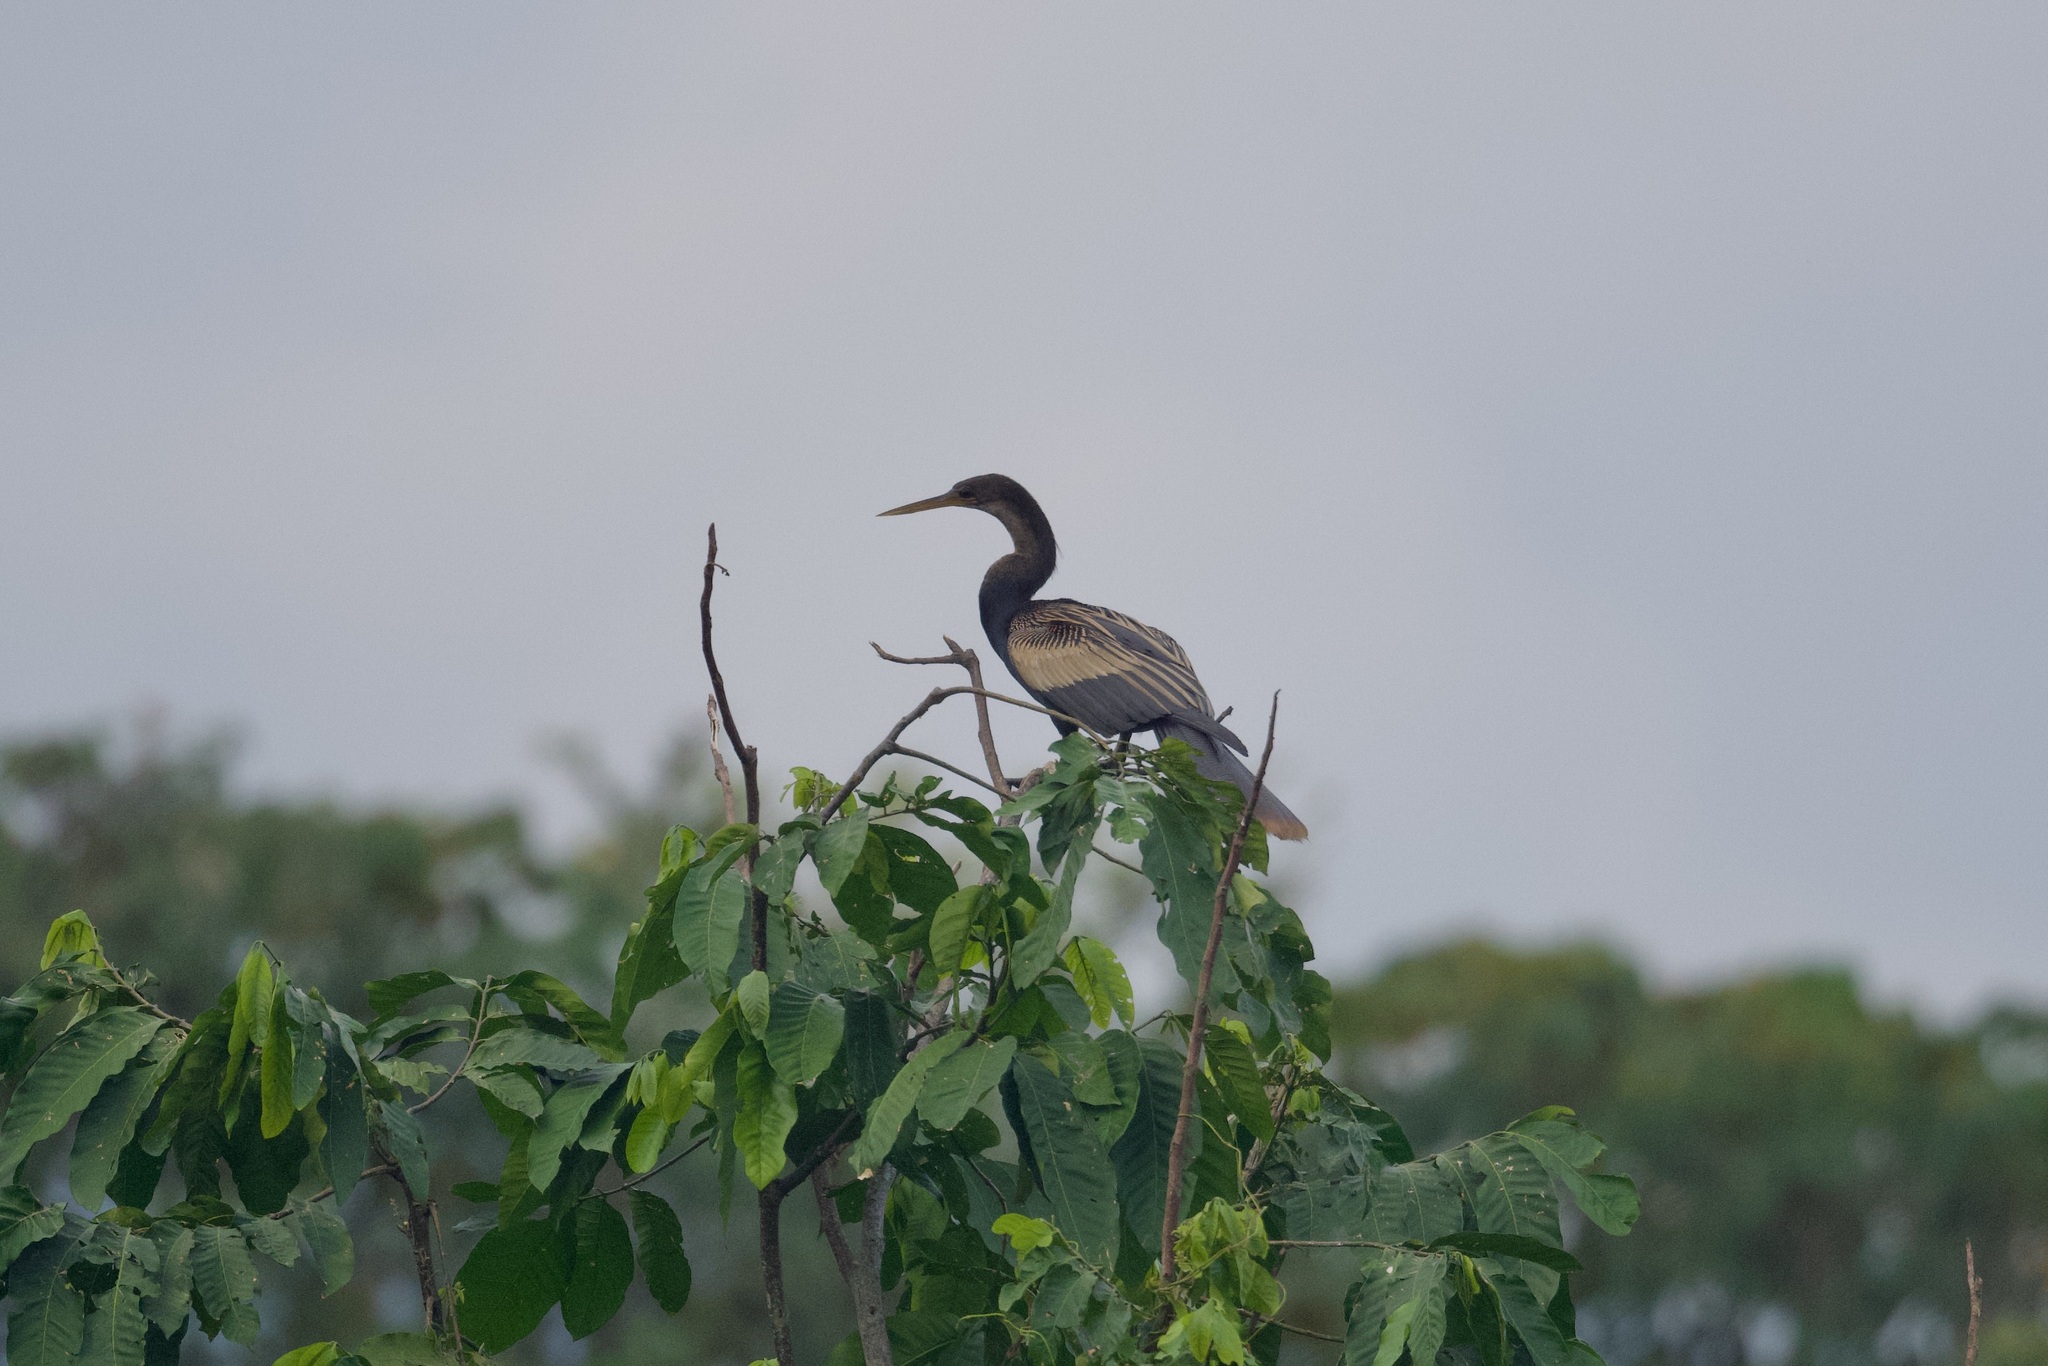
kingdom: Animalia
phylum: Chordata
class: Aves
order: Suliformes
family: Anhingidae
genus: Anhinga
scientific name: Anhinga anhinga
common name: Anhinga
